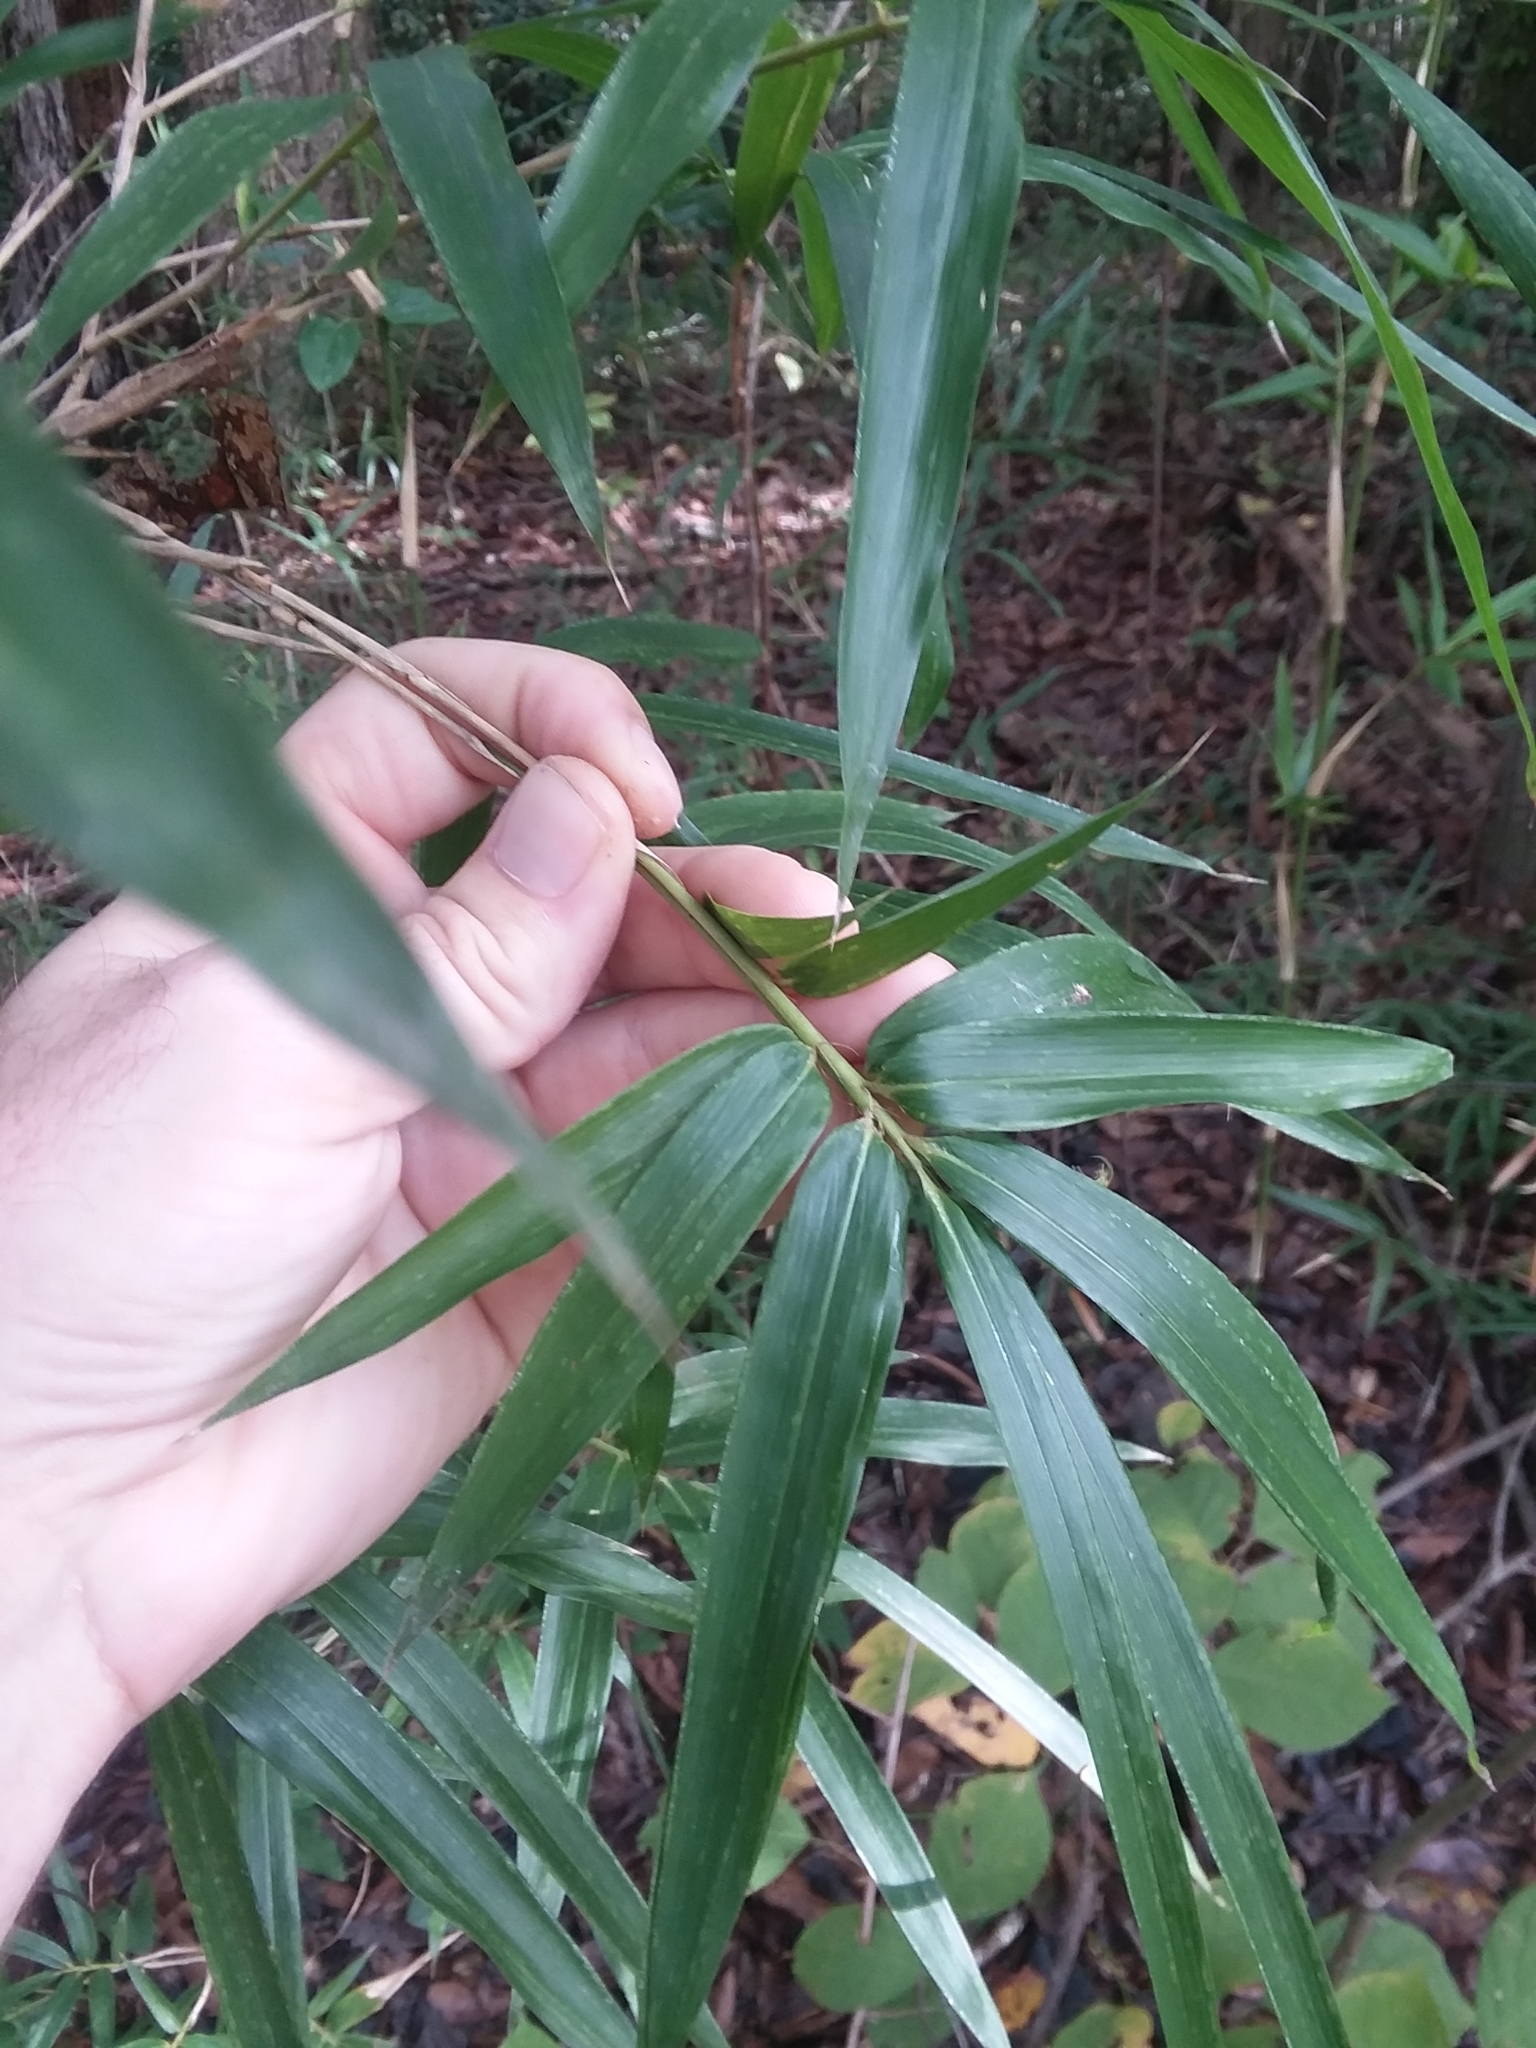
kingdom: Plantae
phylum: Tracheophyta
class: Liliopsida
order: Poales
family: Poaceae
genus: Arundinaria
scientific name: Arundinaria gigantea
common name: Giant cane
